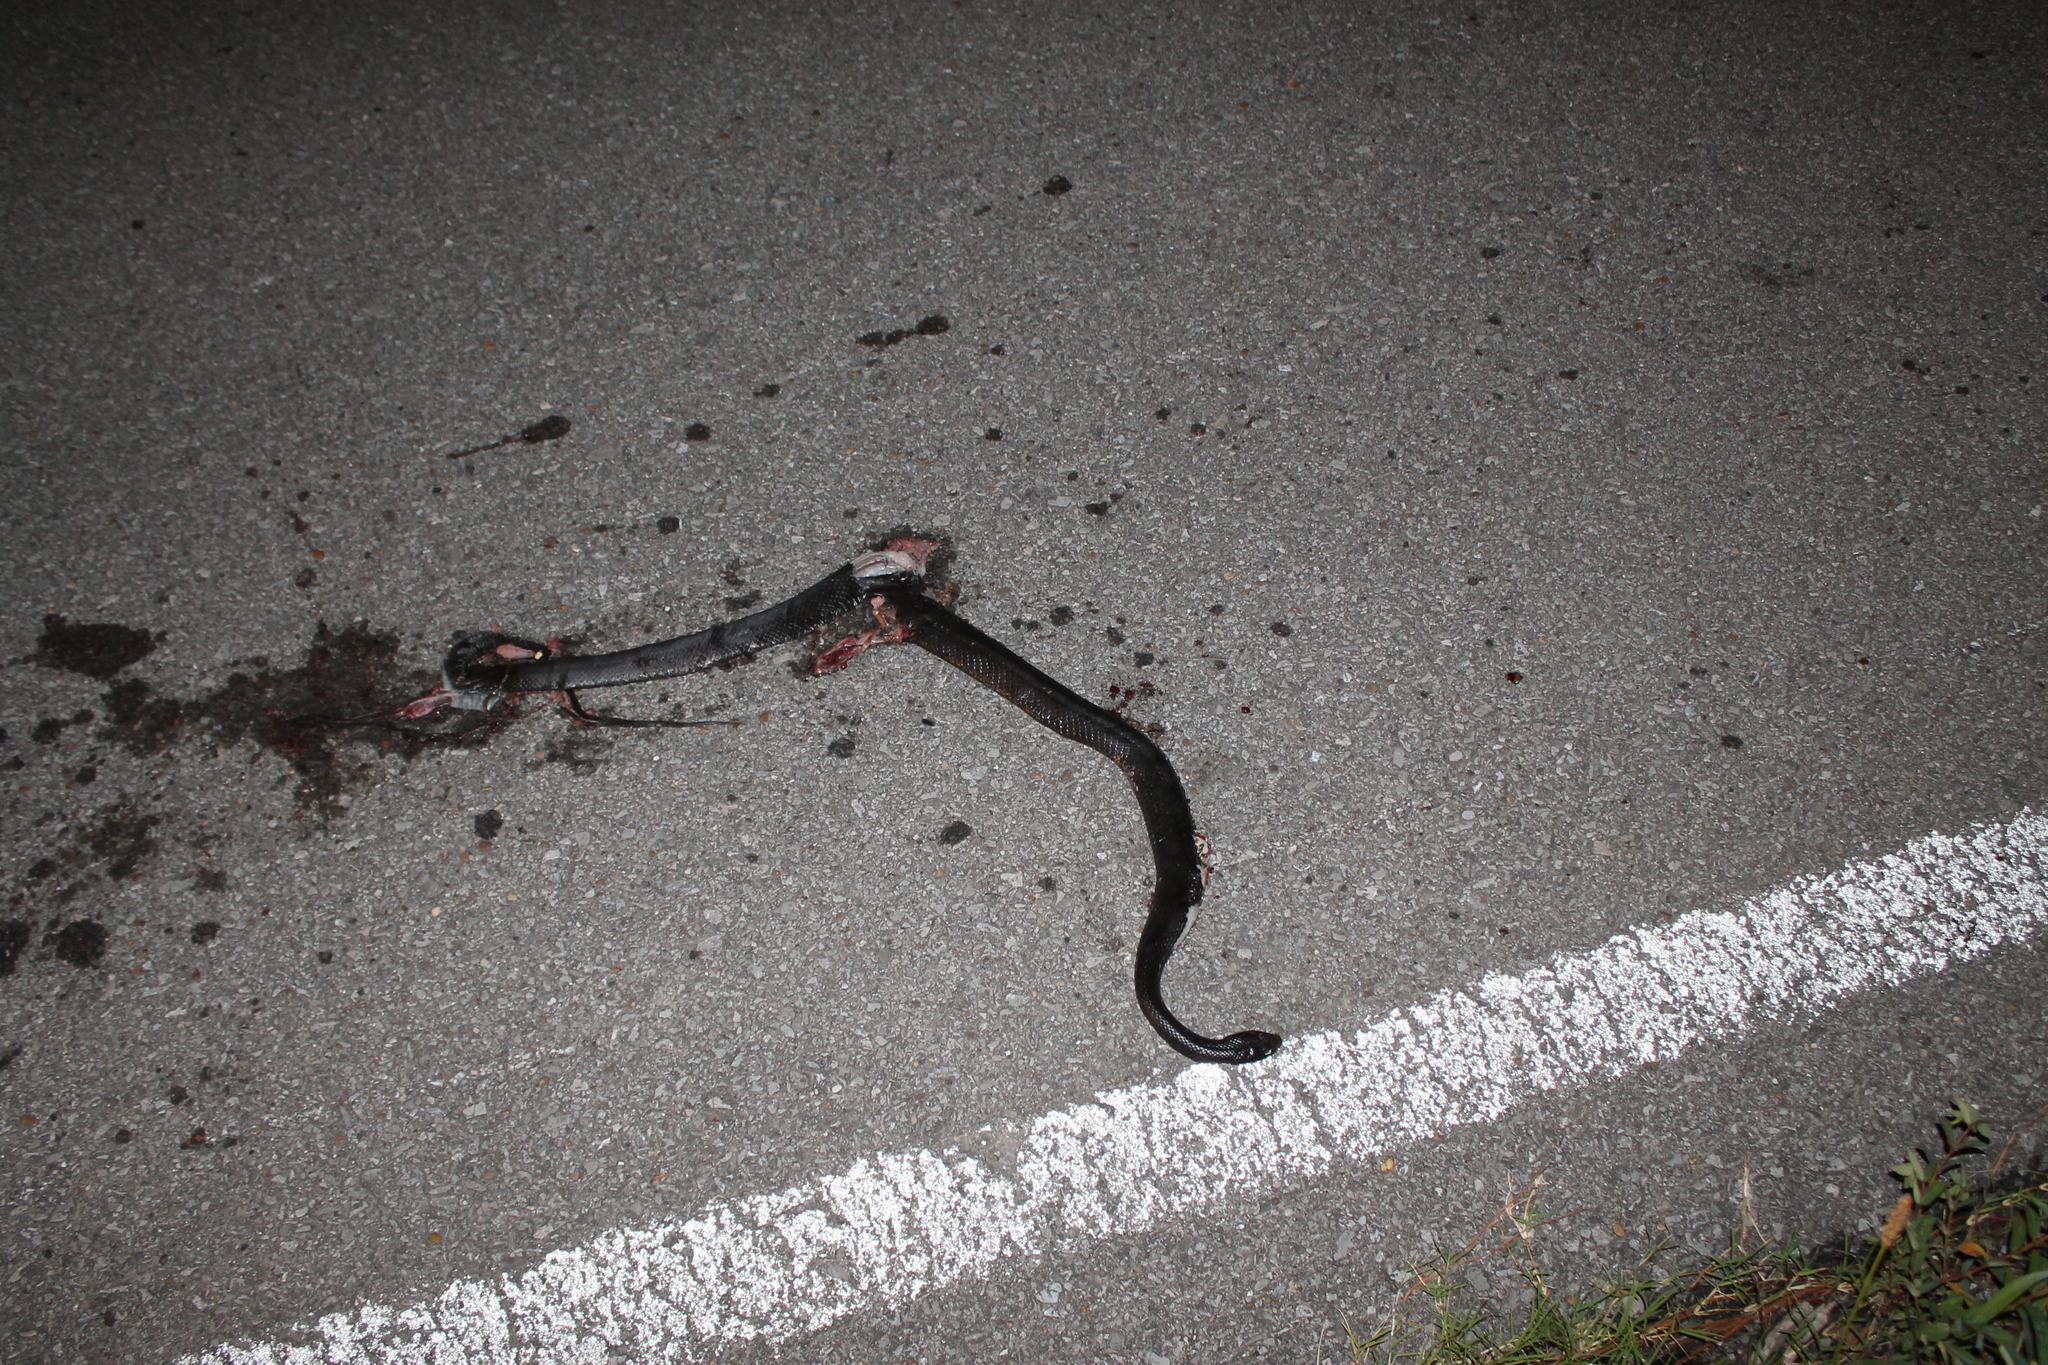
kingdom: Animalia
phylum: Chordata
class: Squamata
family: Colubridae
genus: Coluber
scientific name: Coluber constrictor
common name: Eastern racer
